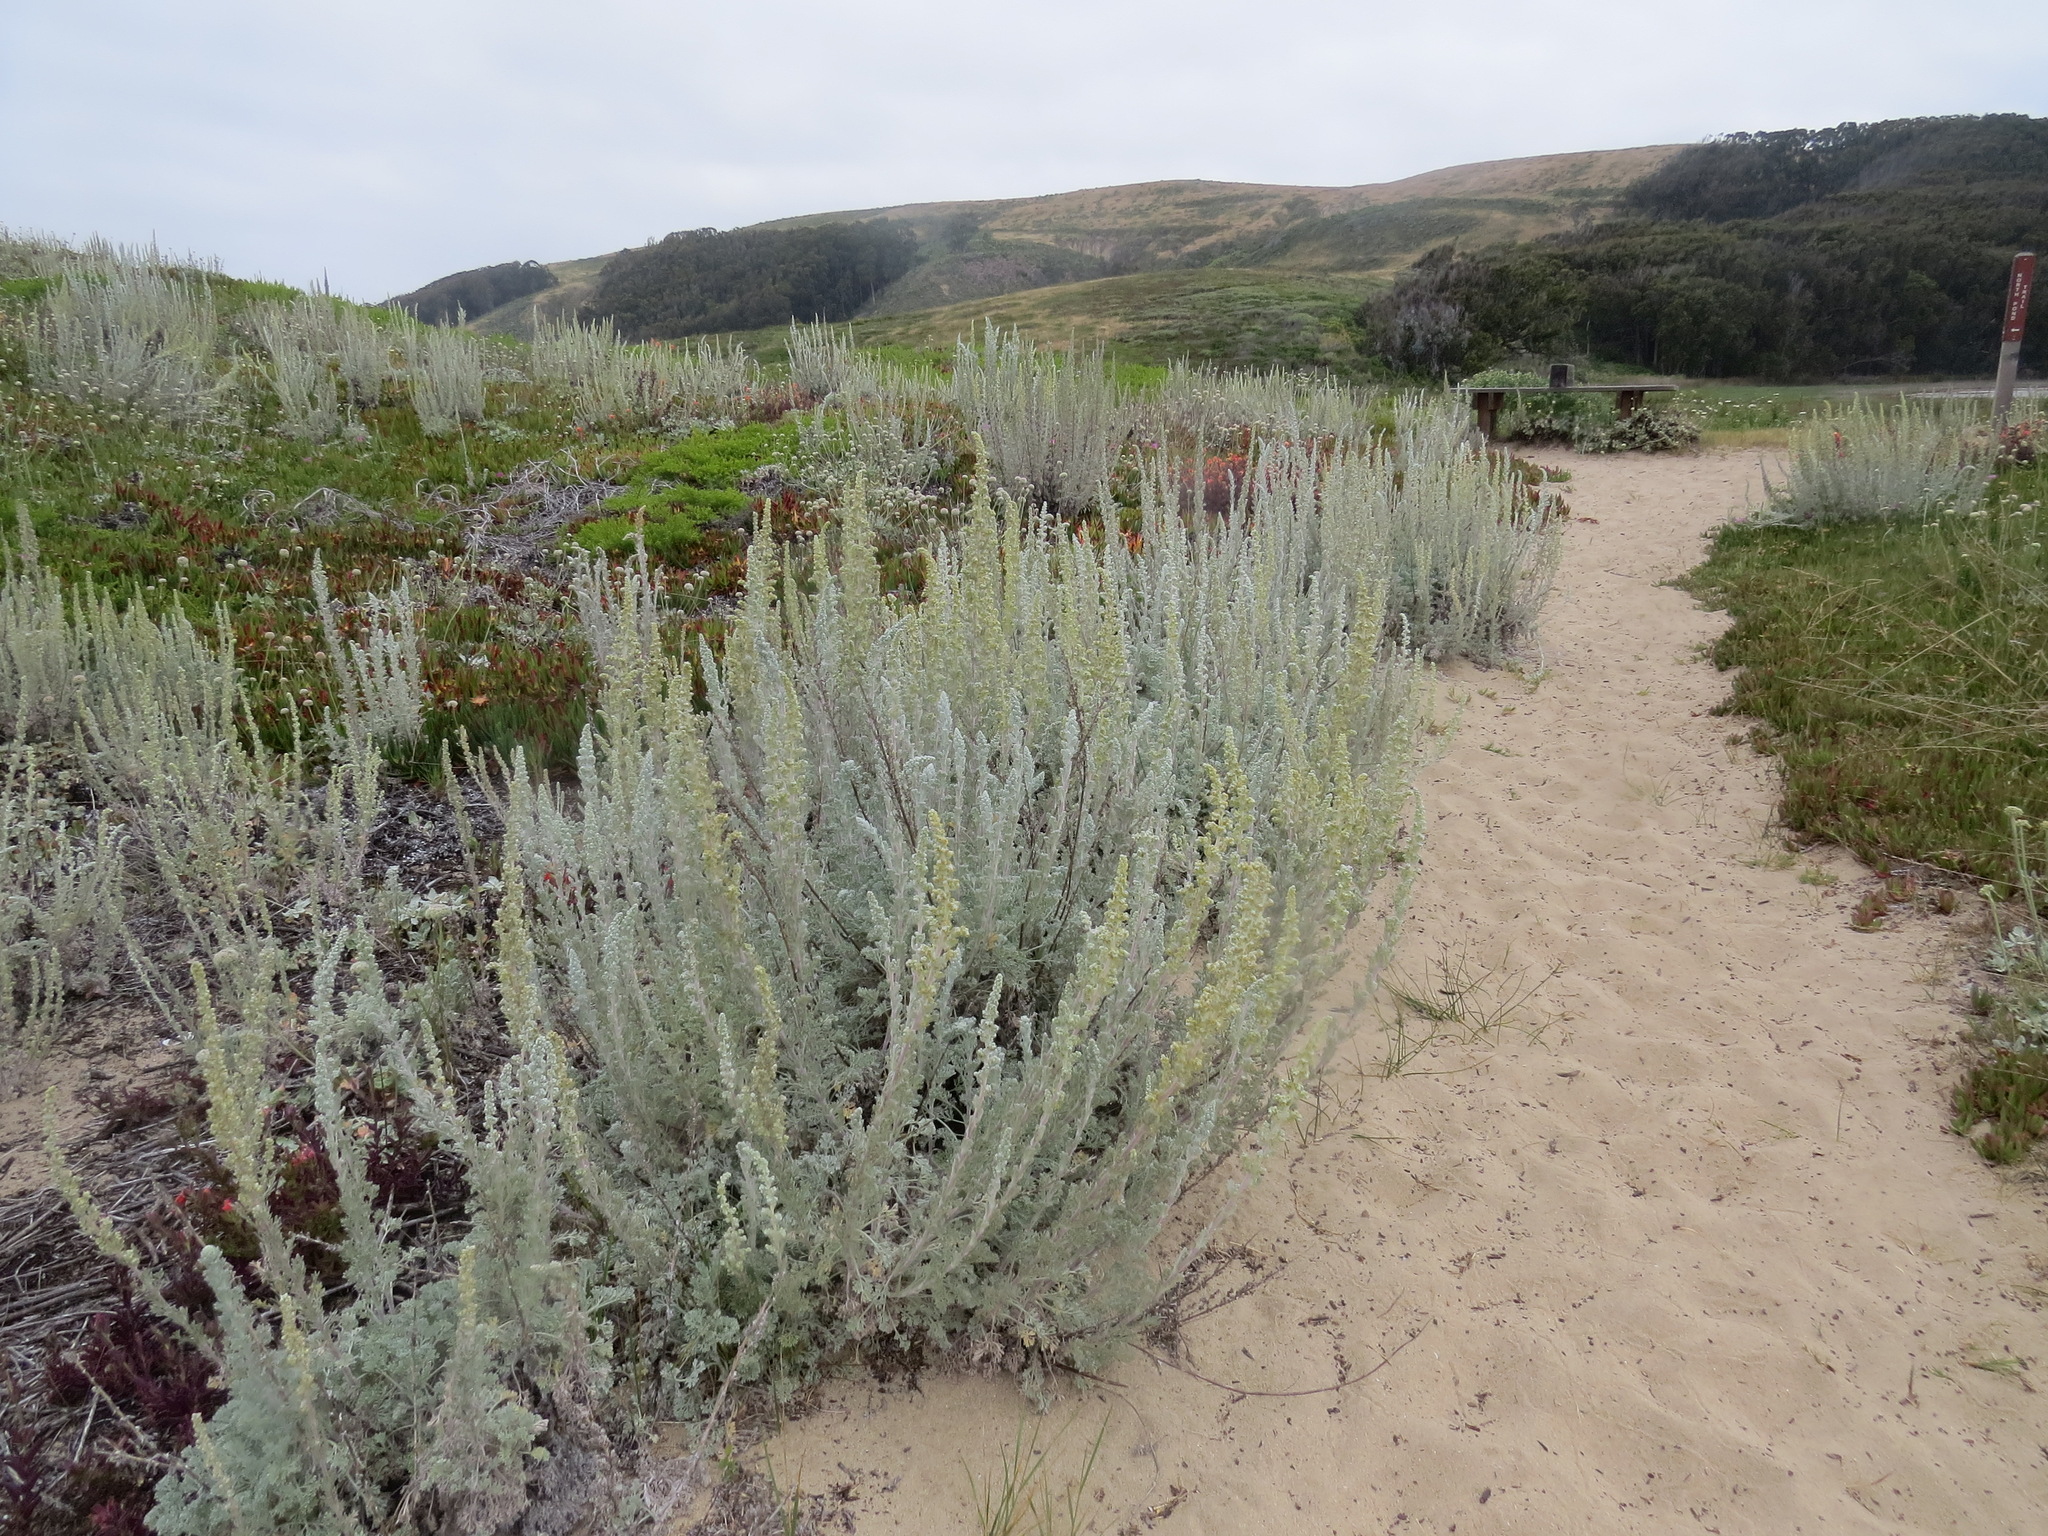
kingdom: Plantae
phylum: Tracheophyta
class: Magnoliopsida
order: Asterales
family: Asteraceae
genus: Artemisia
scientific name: Artemisia pycnocephala
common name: Coastal sagewort
